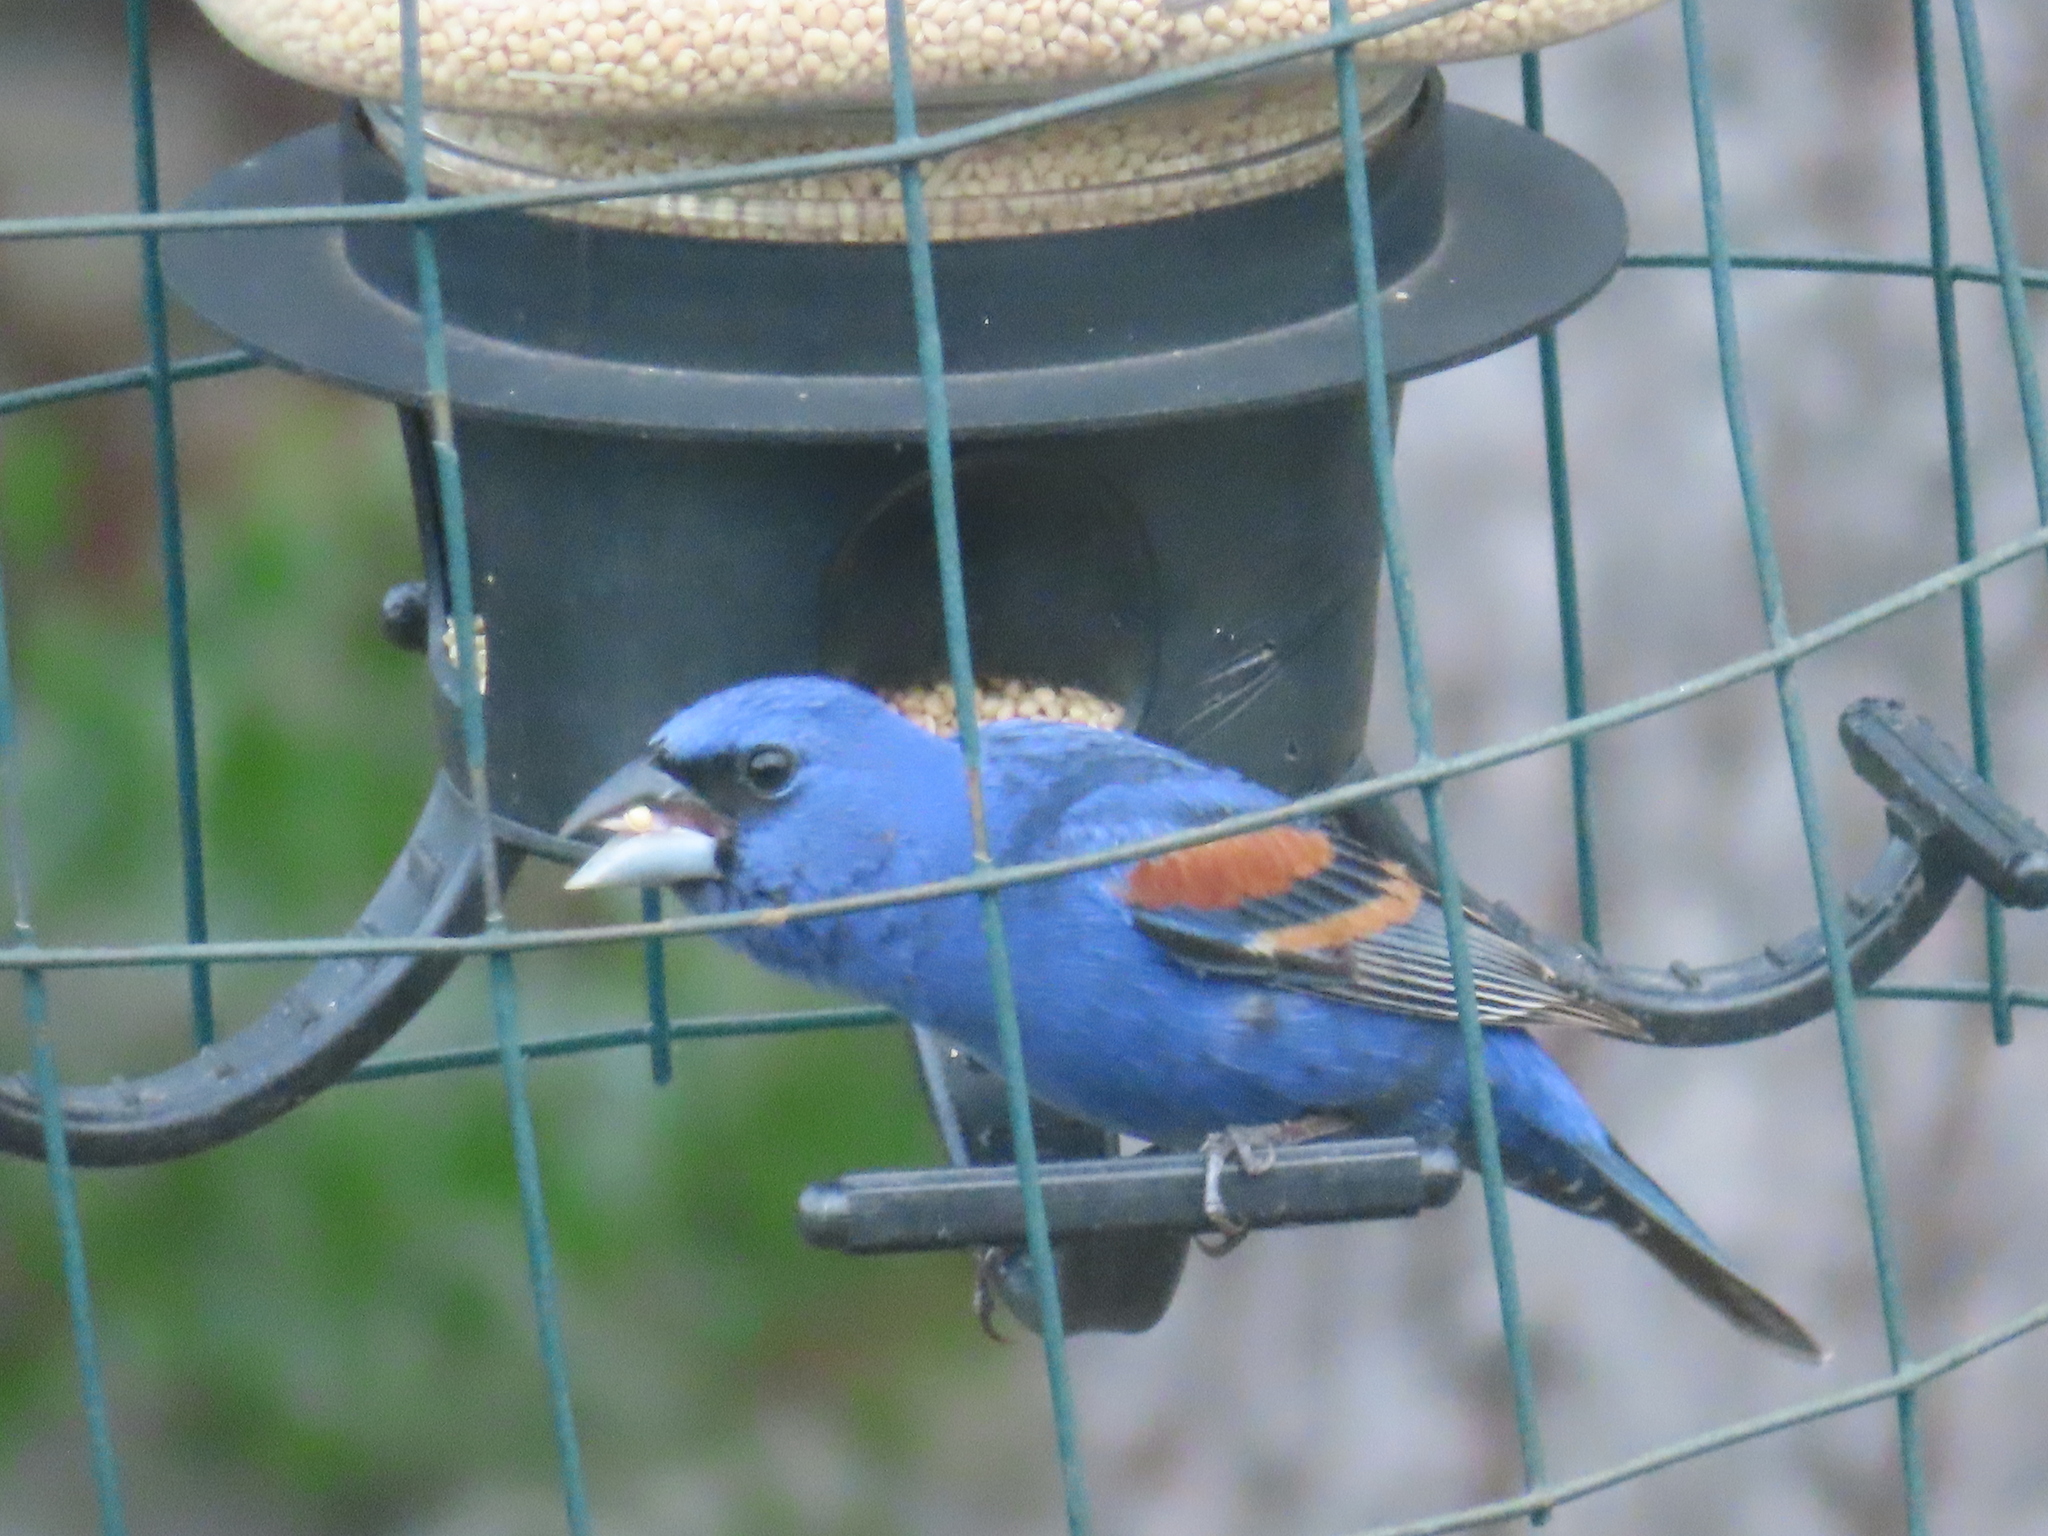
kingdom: Animalia
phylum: Chordata
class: Aves
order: Passeriformes
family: Cardinalidae
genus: Passerina
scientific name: Passerina caerulea
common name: Blue grosbeak
